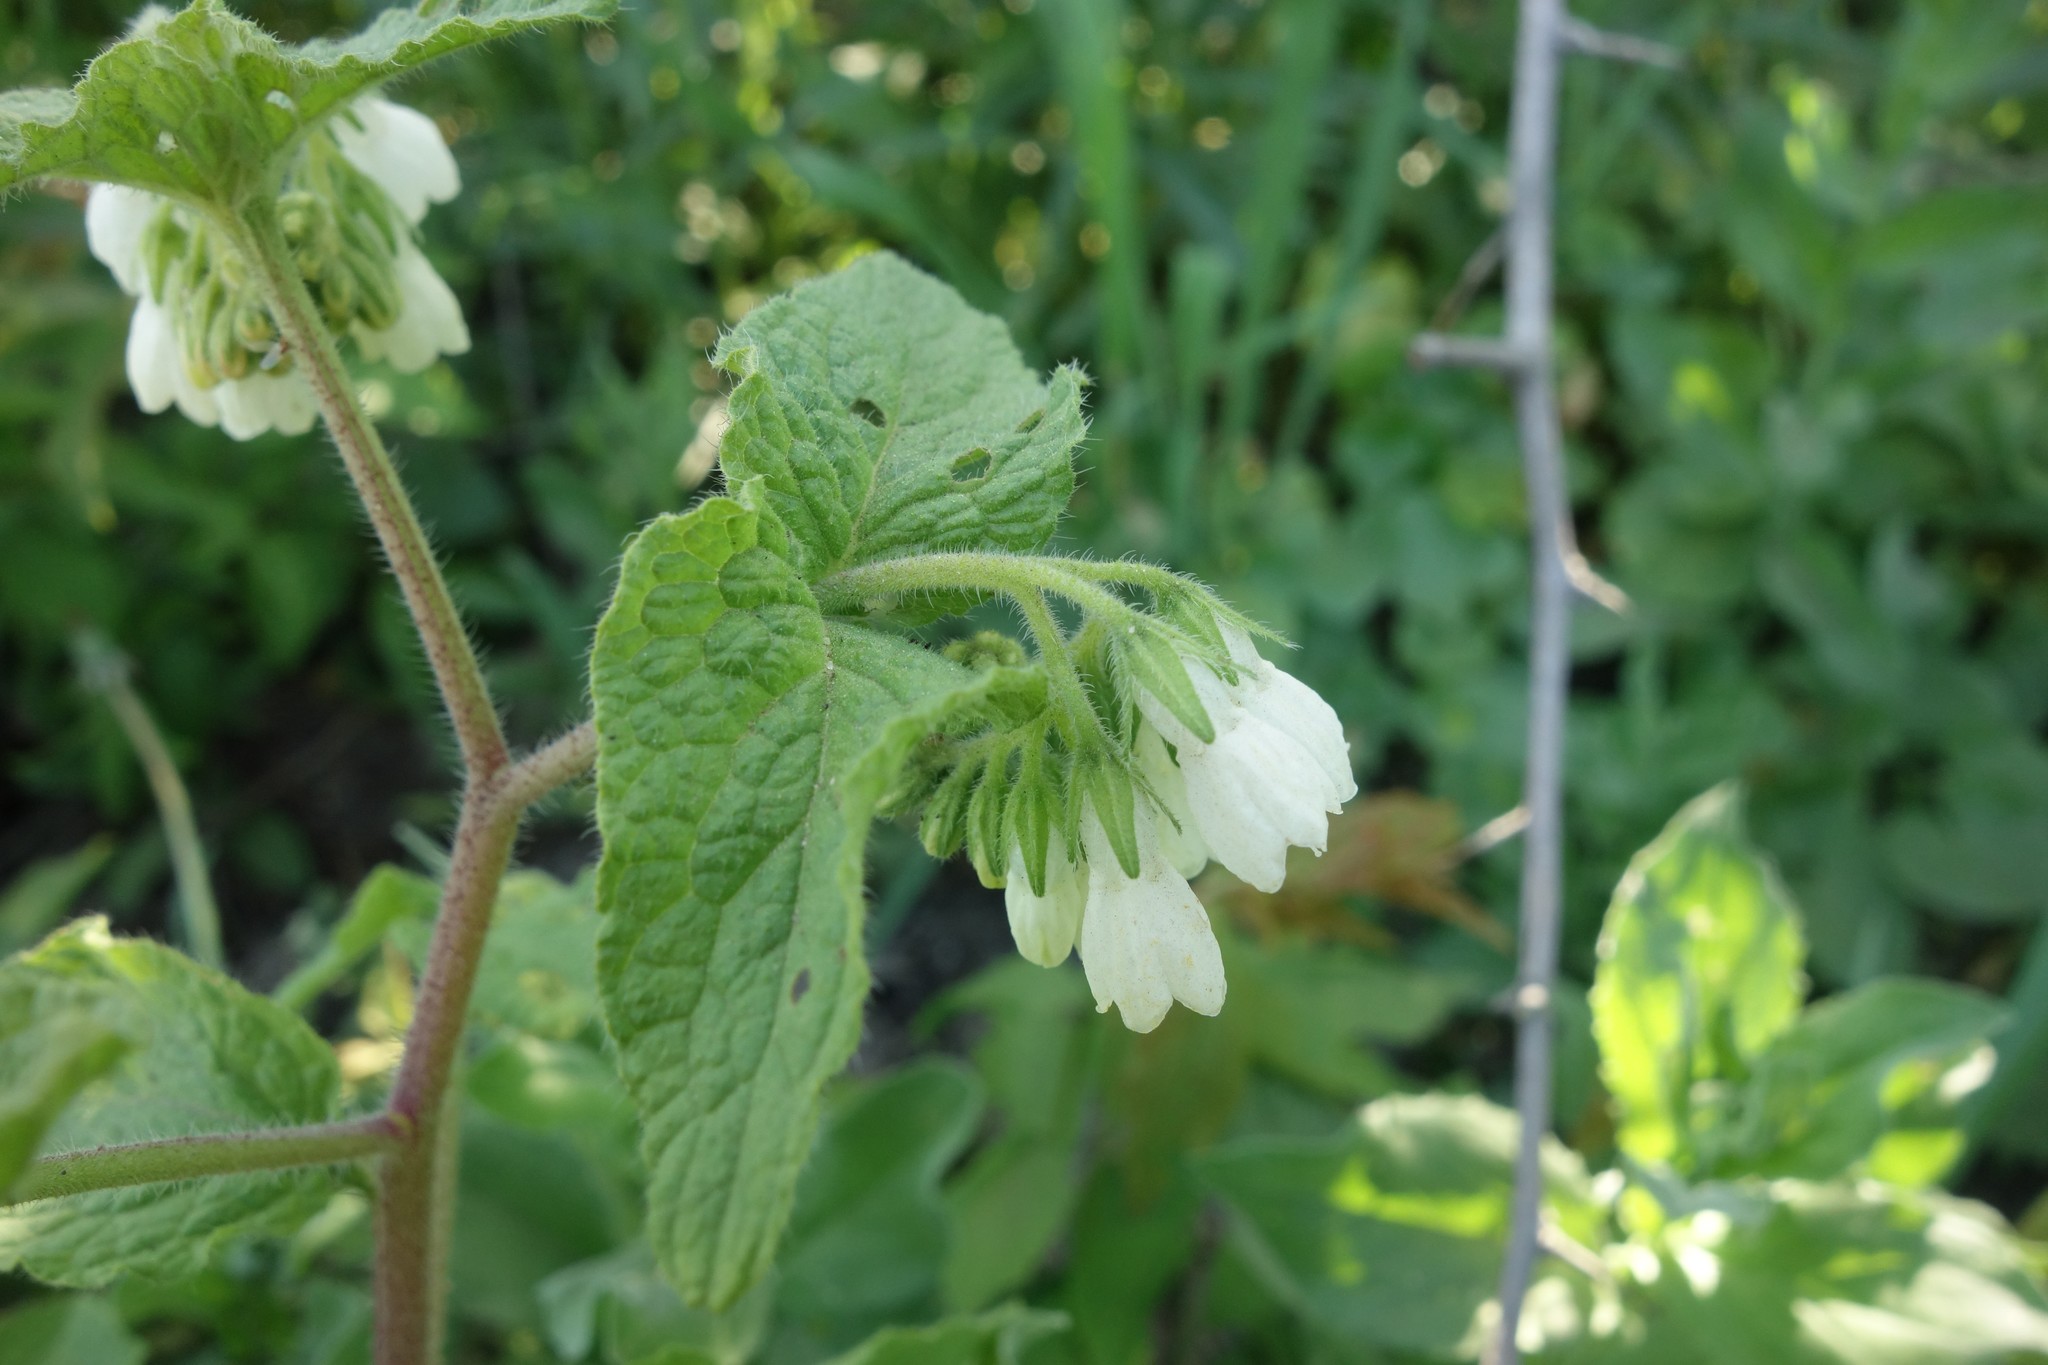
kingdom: Plantae
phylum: Tracheophyta
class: Magnoliopsida
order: Boraginales
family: Boraginaceae
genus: Symphytum
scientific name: Symphytum tauricum
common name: Crimean comfrey
